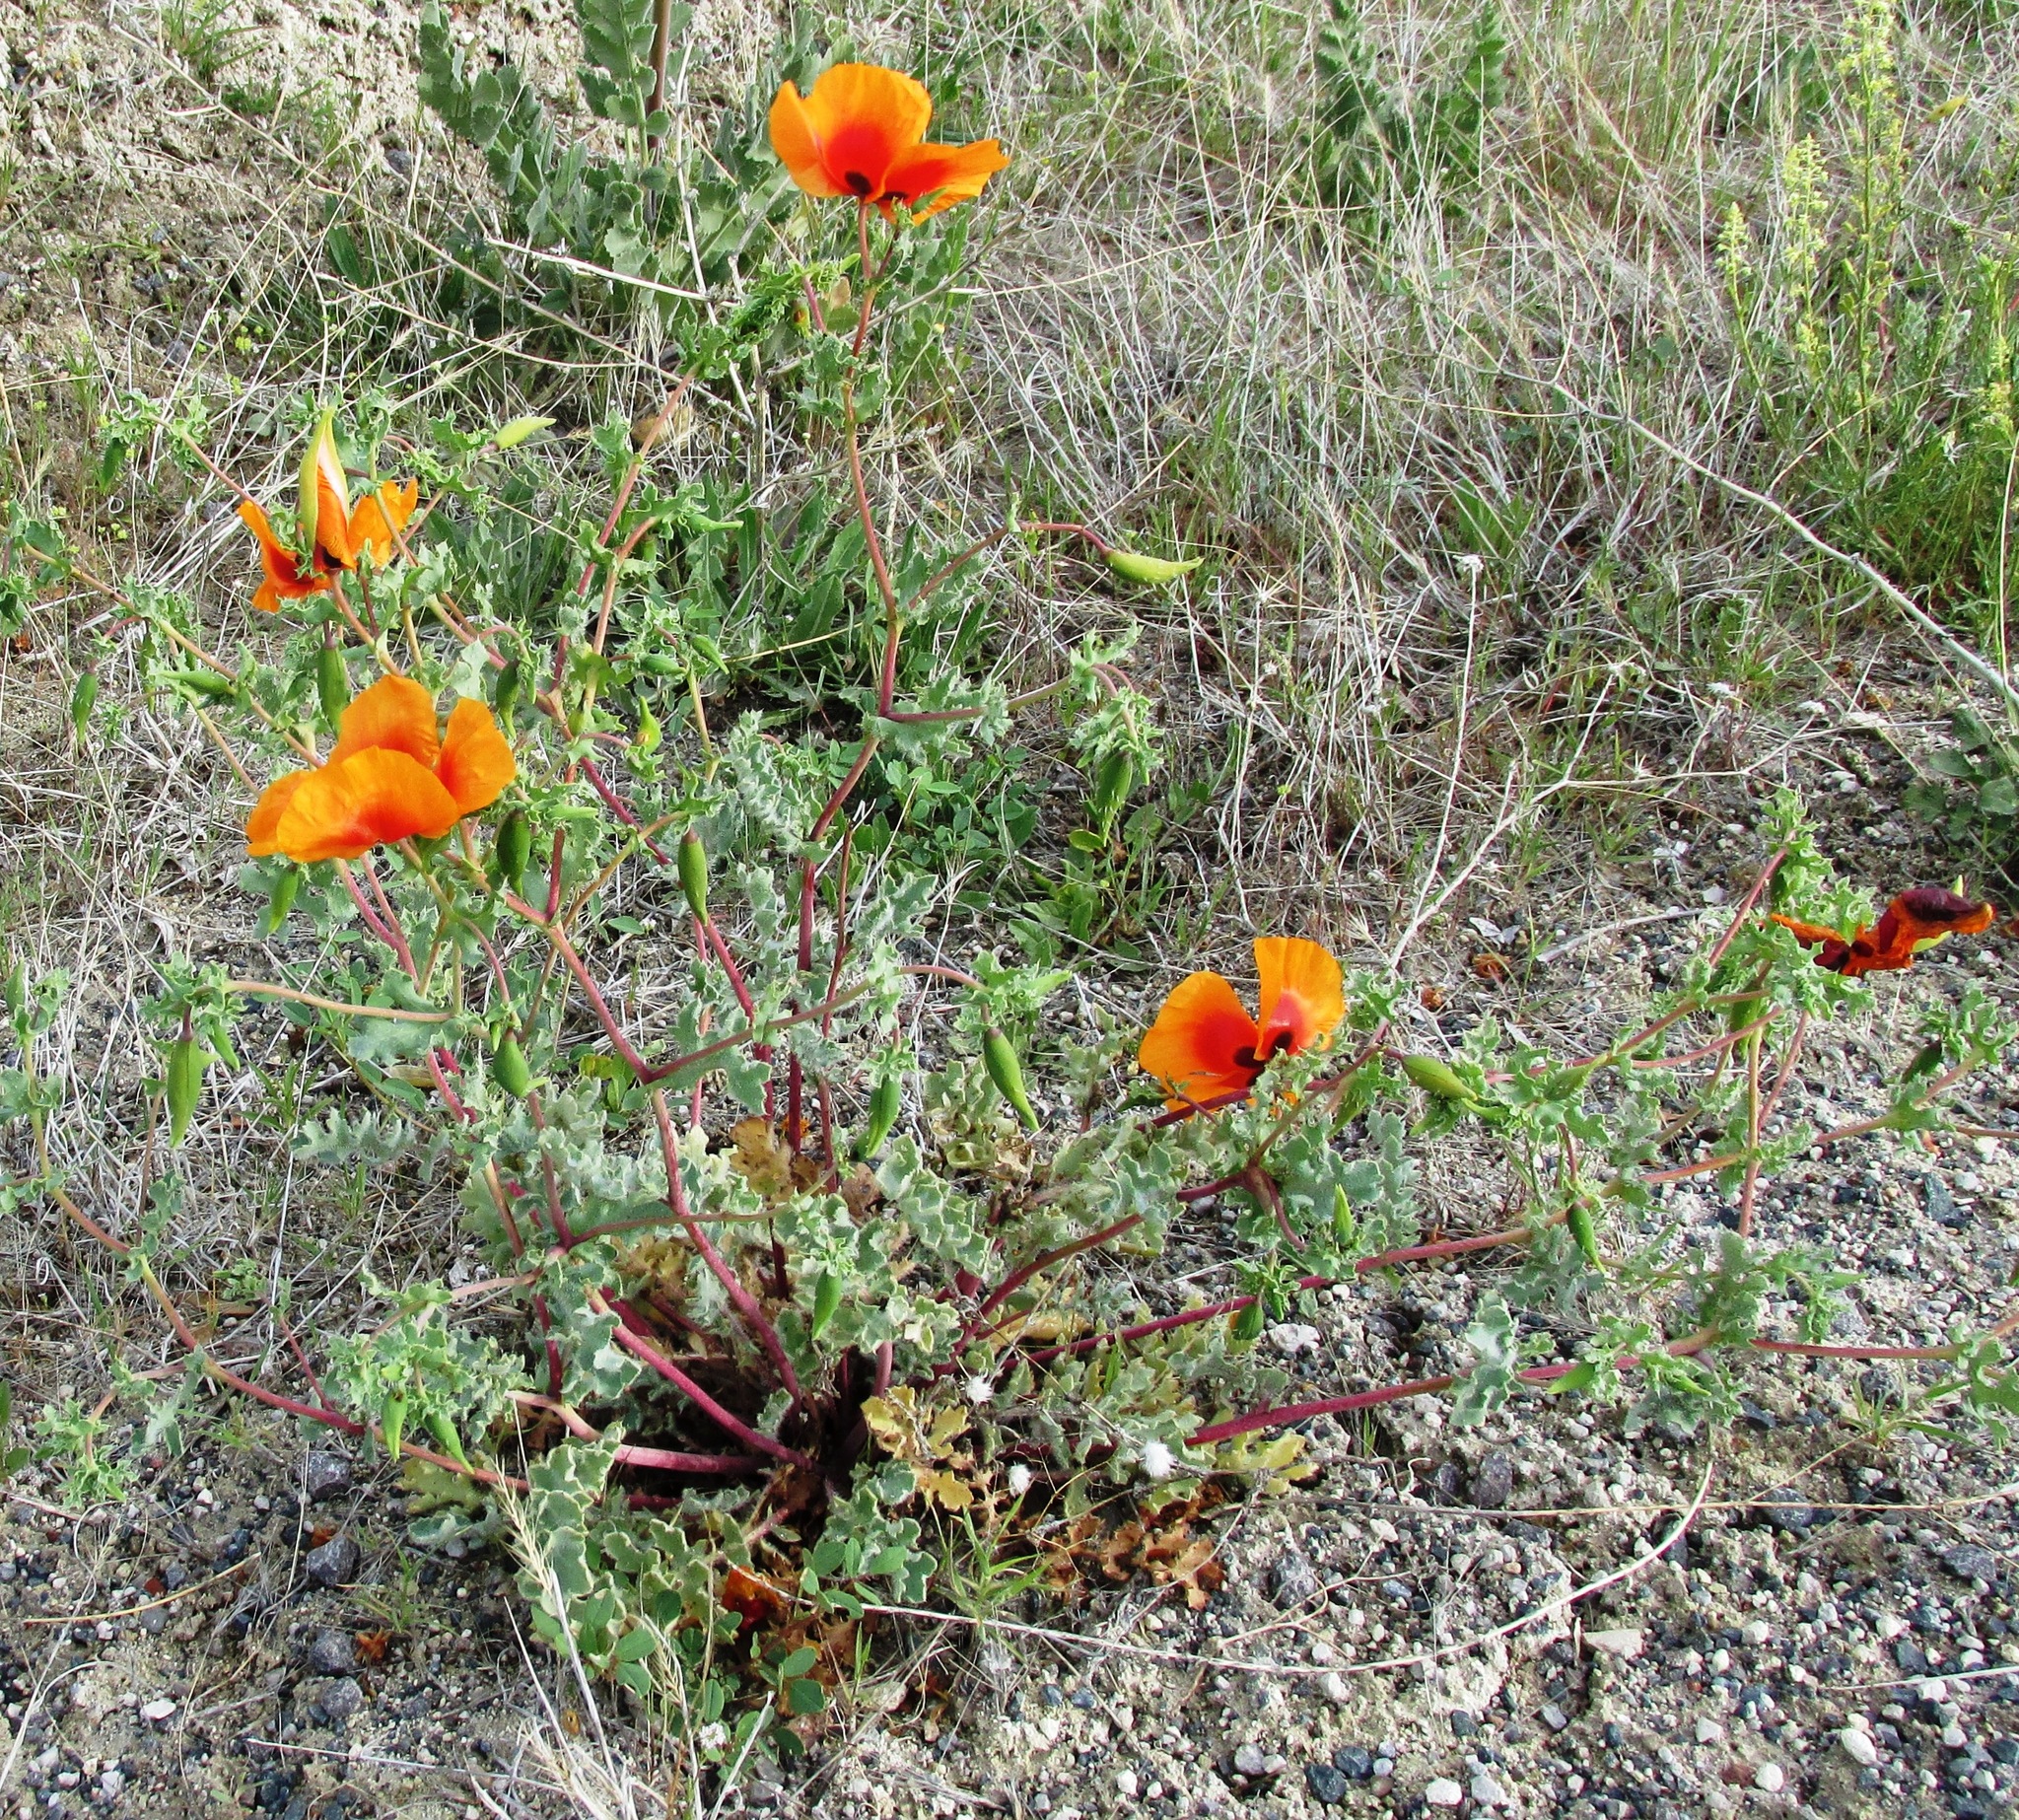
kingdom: Plantae
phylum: Tracheophyta
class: Magnoliopsida
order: Ranunculales
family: Papaveraceae
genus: Glaucium
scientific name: Glaucium grandiflorum
